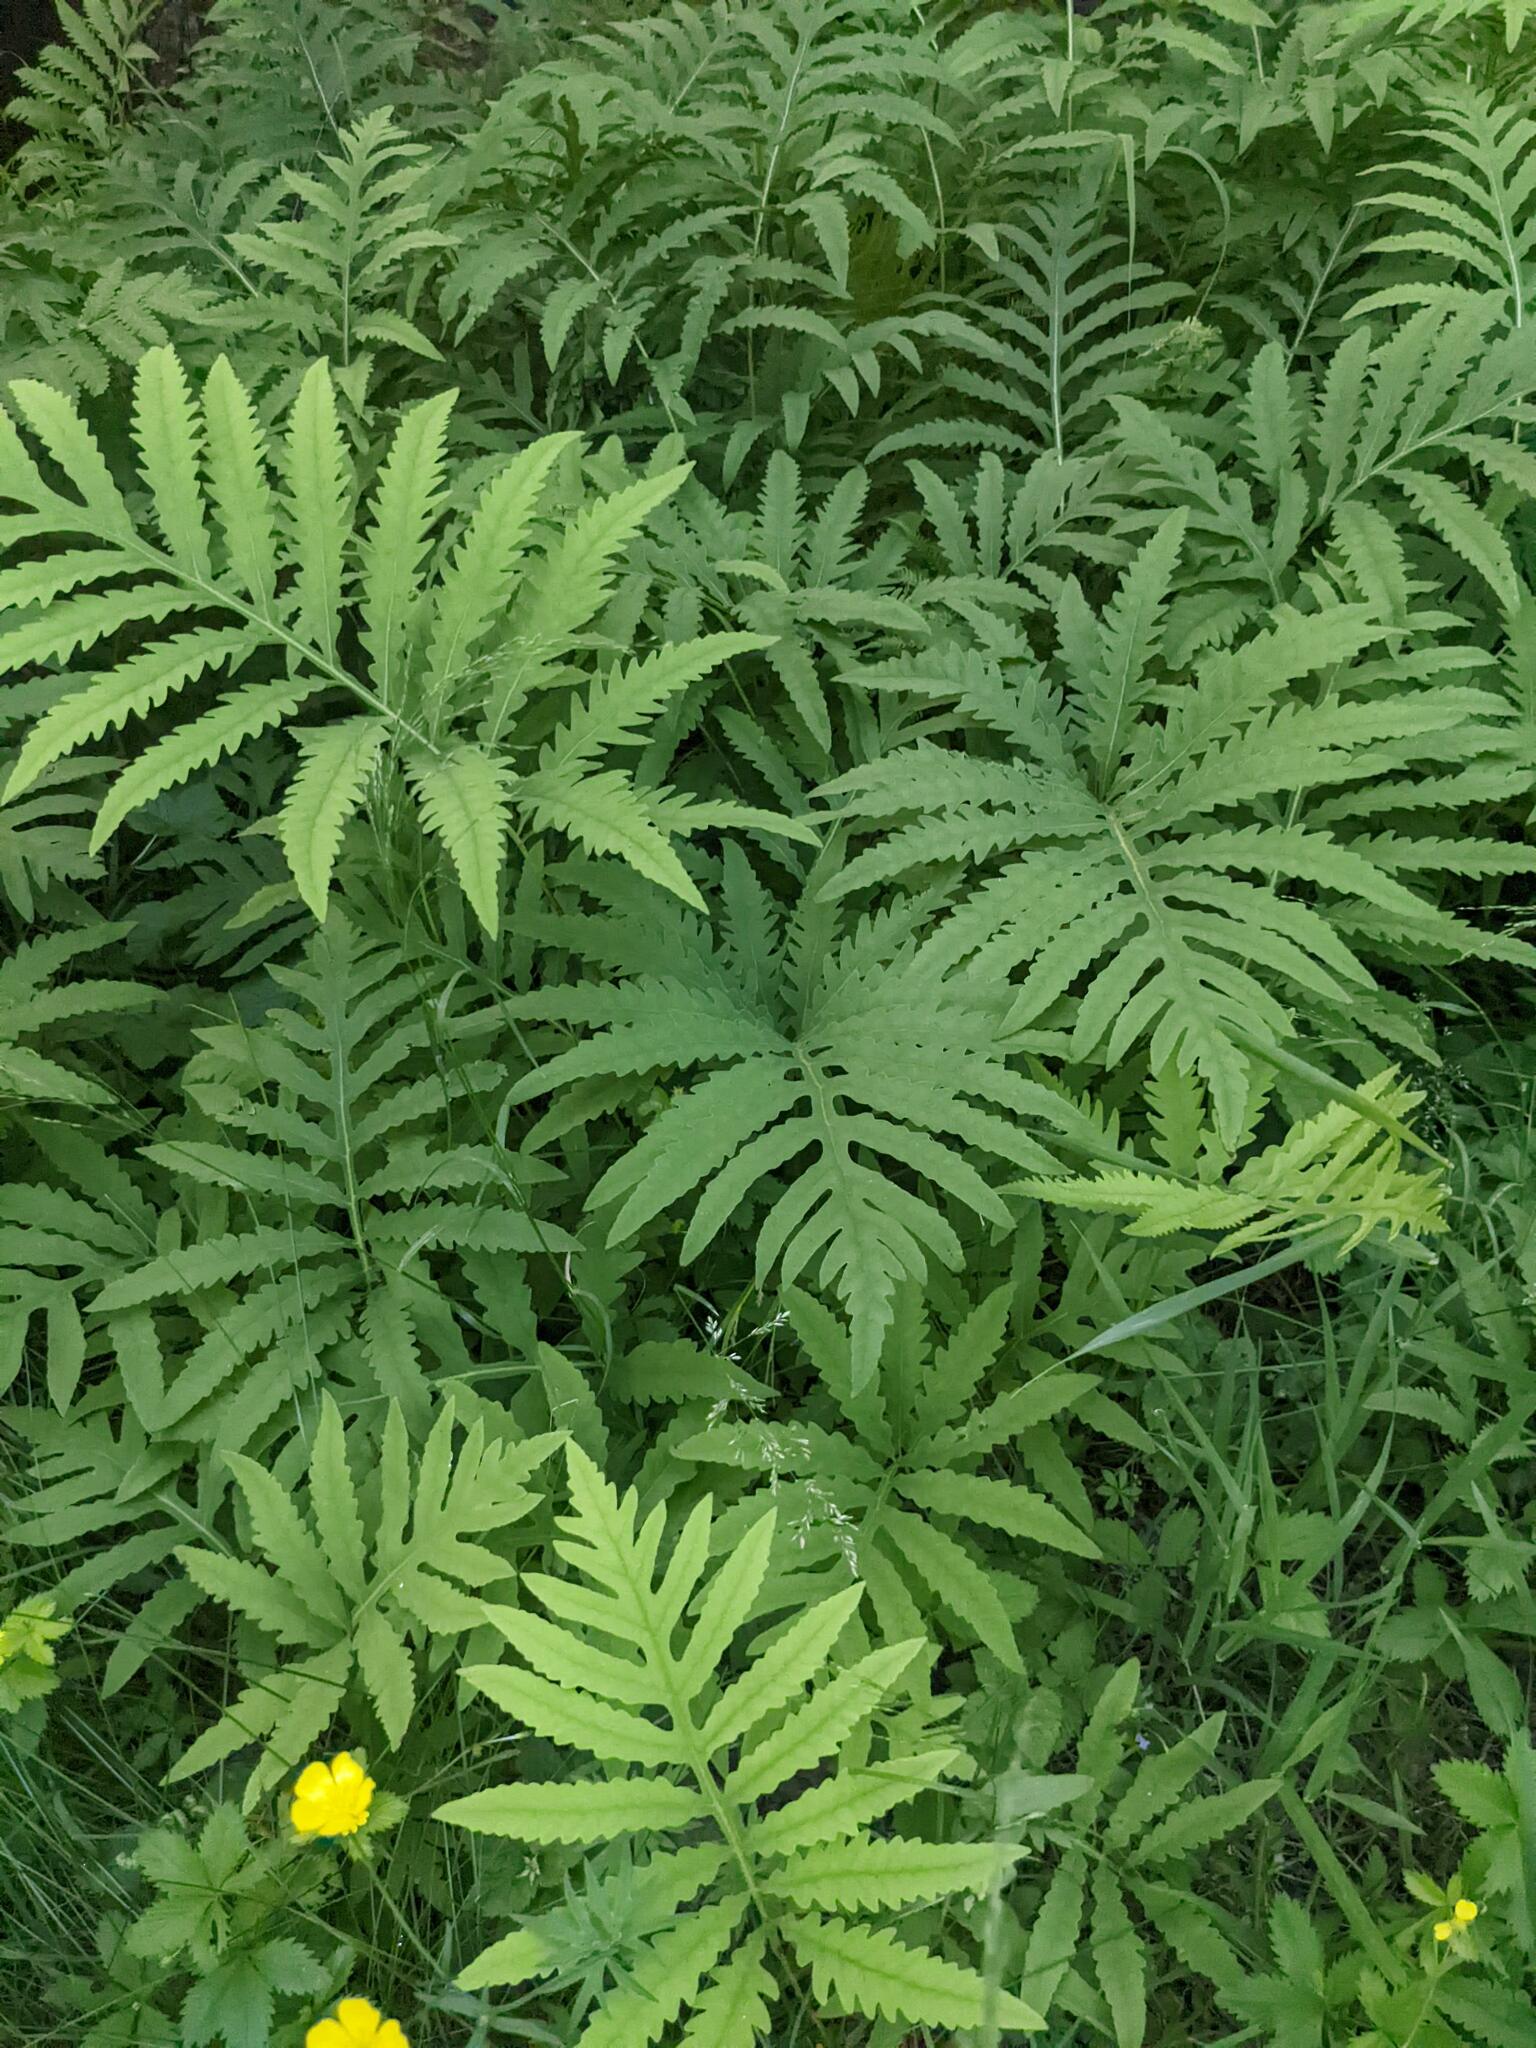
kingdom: Plantae
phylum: Tracheophyta
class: Polypodiopsida
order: Polypodiales
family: Onocleaceae
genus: Onoclea
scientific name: Onoclea sensibilis
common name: Sensitive fern
